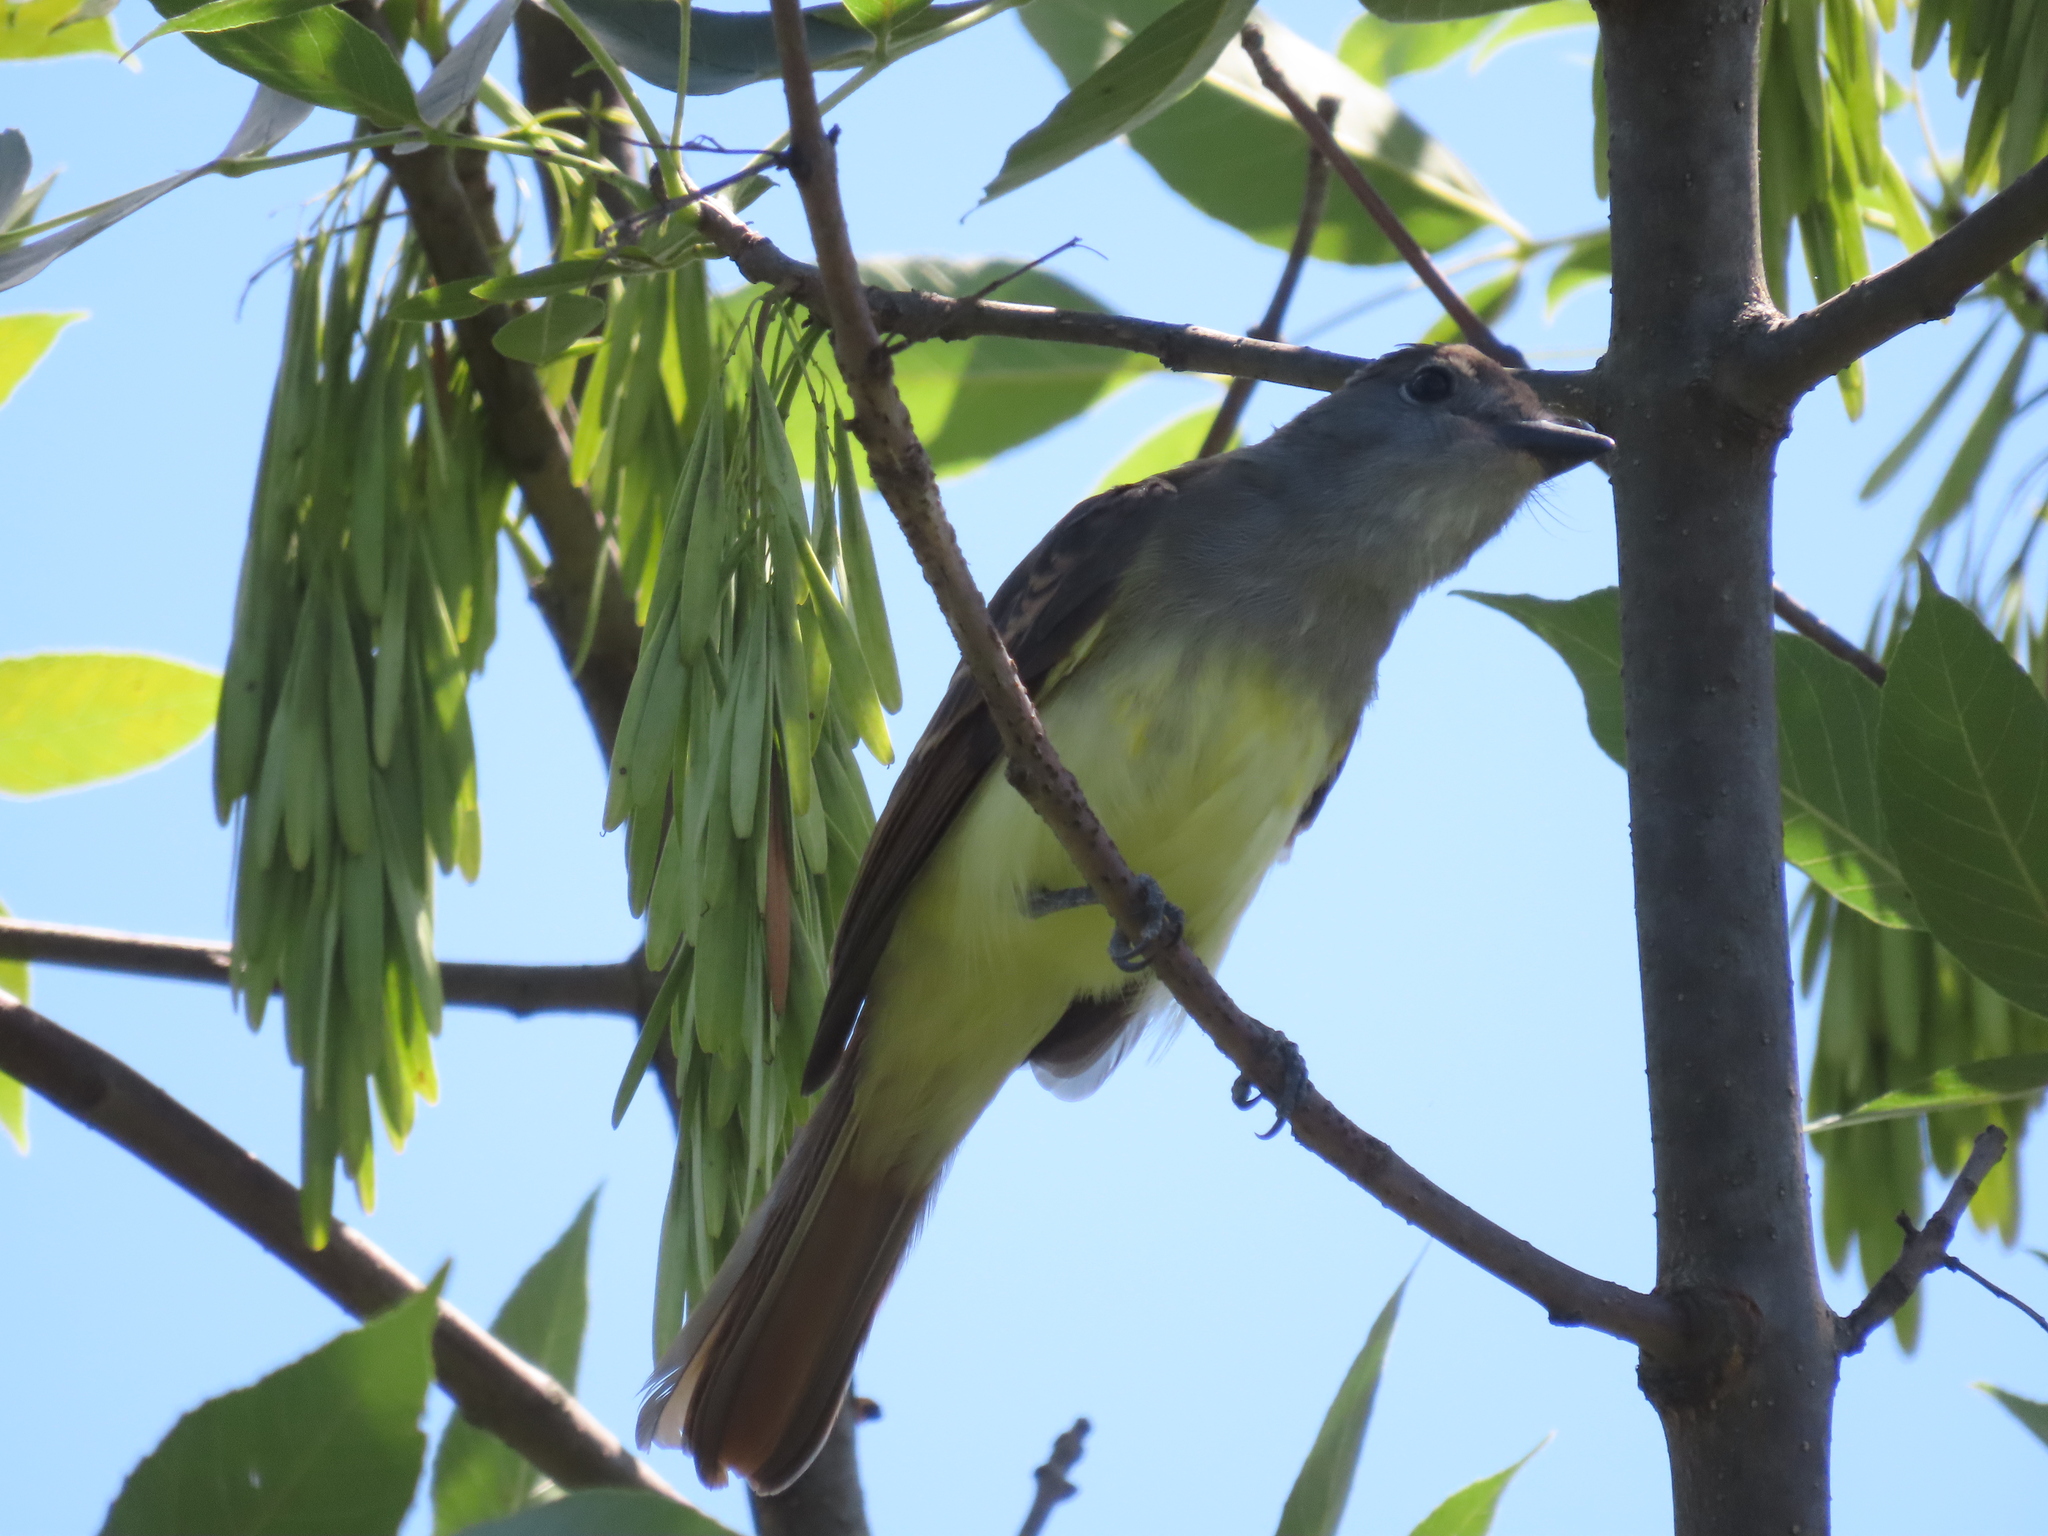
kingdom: Animalia
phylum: Chordata
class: Aves
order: Passeriformes
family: Tyrannidae
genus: Myiarchus
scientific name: Myiarchus crinitus
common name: Great crested flycatcher
